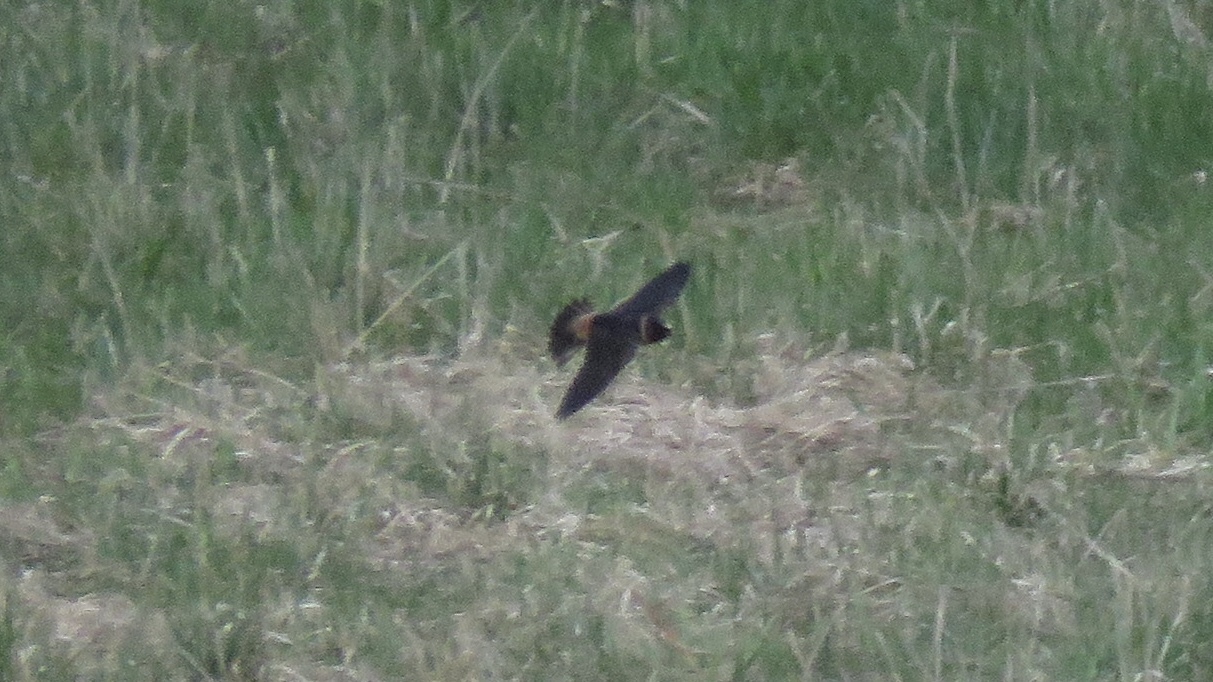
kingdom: Animalia
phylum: Chordata
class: Aves
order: Passeriformes
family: Hirundinidae
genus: Petrochelidon
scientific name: Petrochelidon pyrrhonota
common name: American cliff swallow
